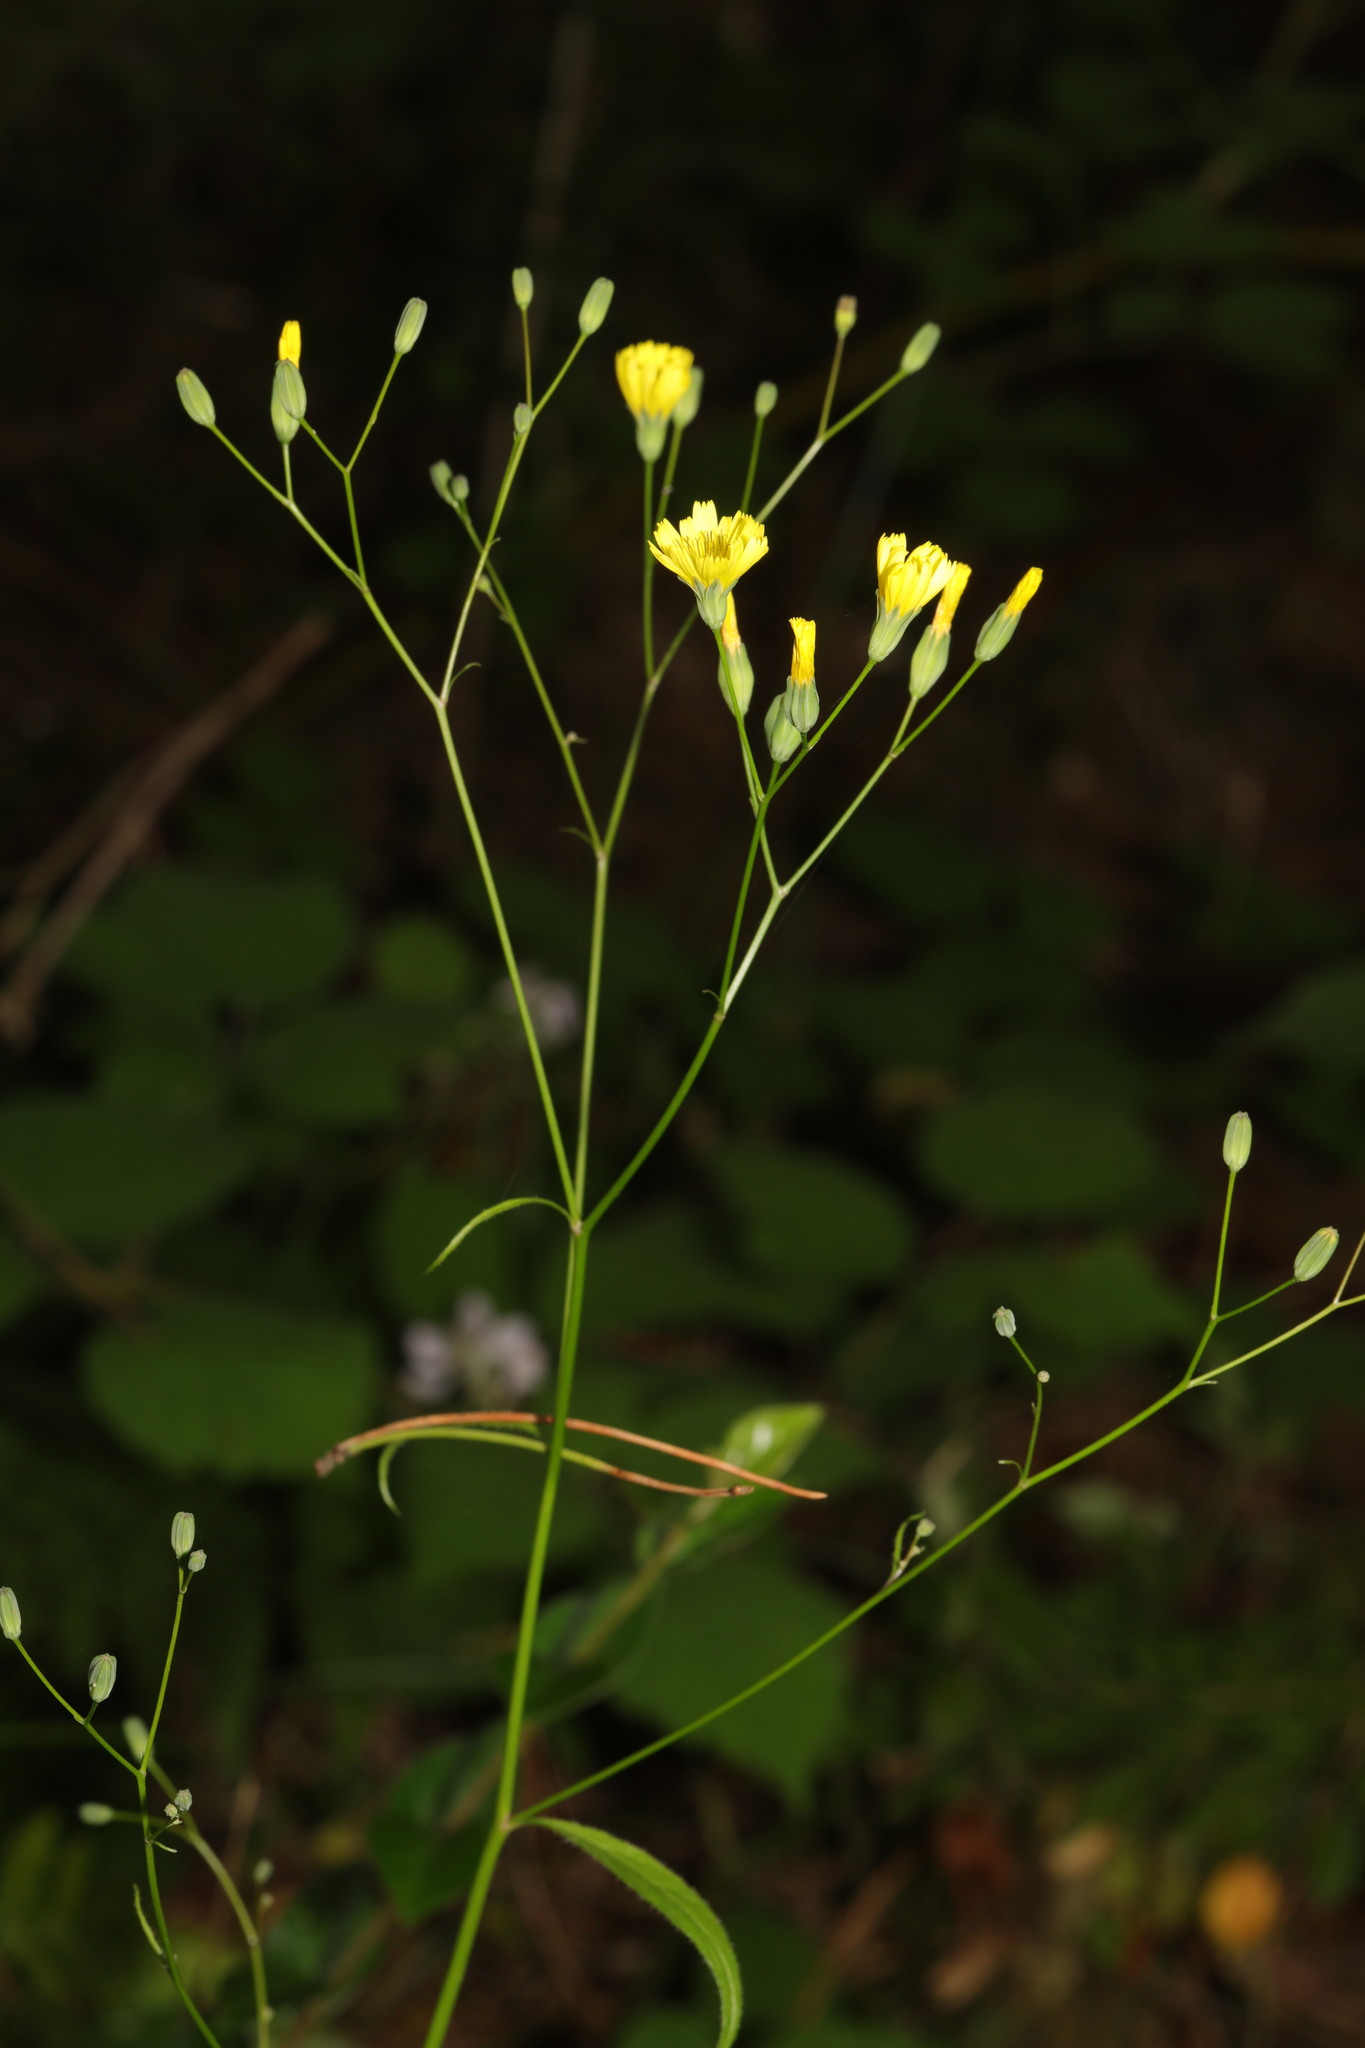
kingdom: Plantae
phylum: Tracheophyta
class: Magnoliopsida
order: Asterales
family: Asteraceae
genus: Lapsana
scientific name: Lapsana communis
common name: Nipplewort
